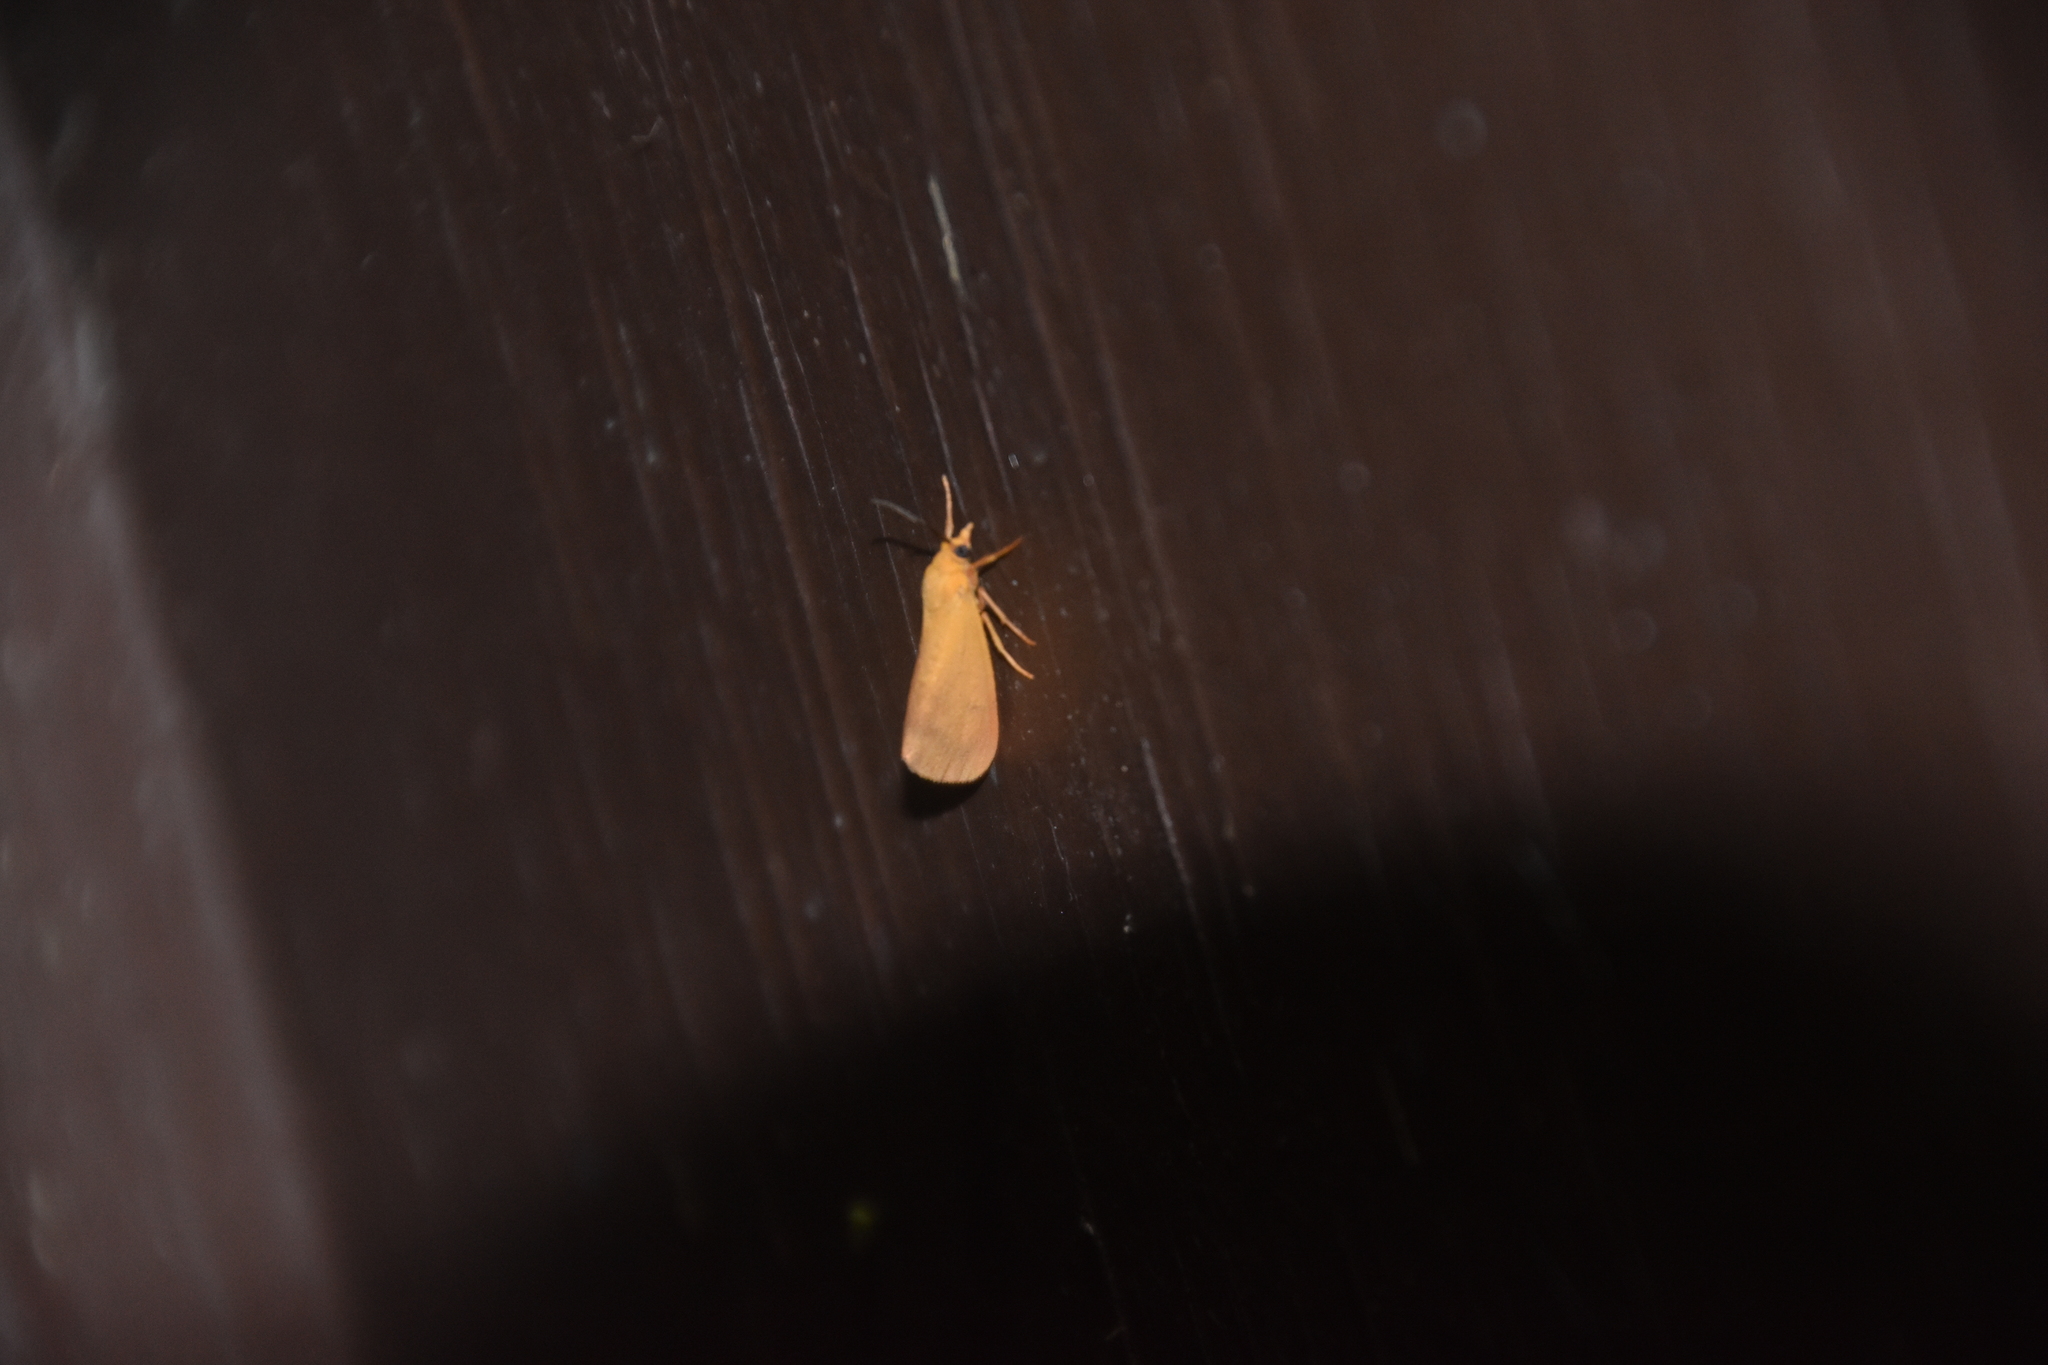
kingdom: Animalia
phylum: Arthropoda
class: Insecta
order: Lepidoptera
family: Erebidae
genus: Virbia
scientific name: Virbia aurantiaca
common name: Orange virbia moth
